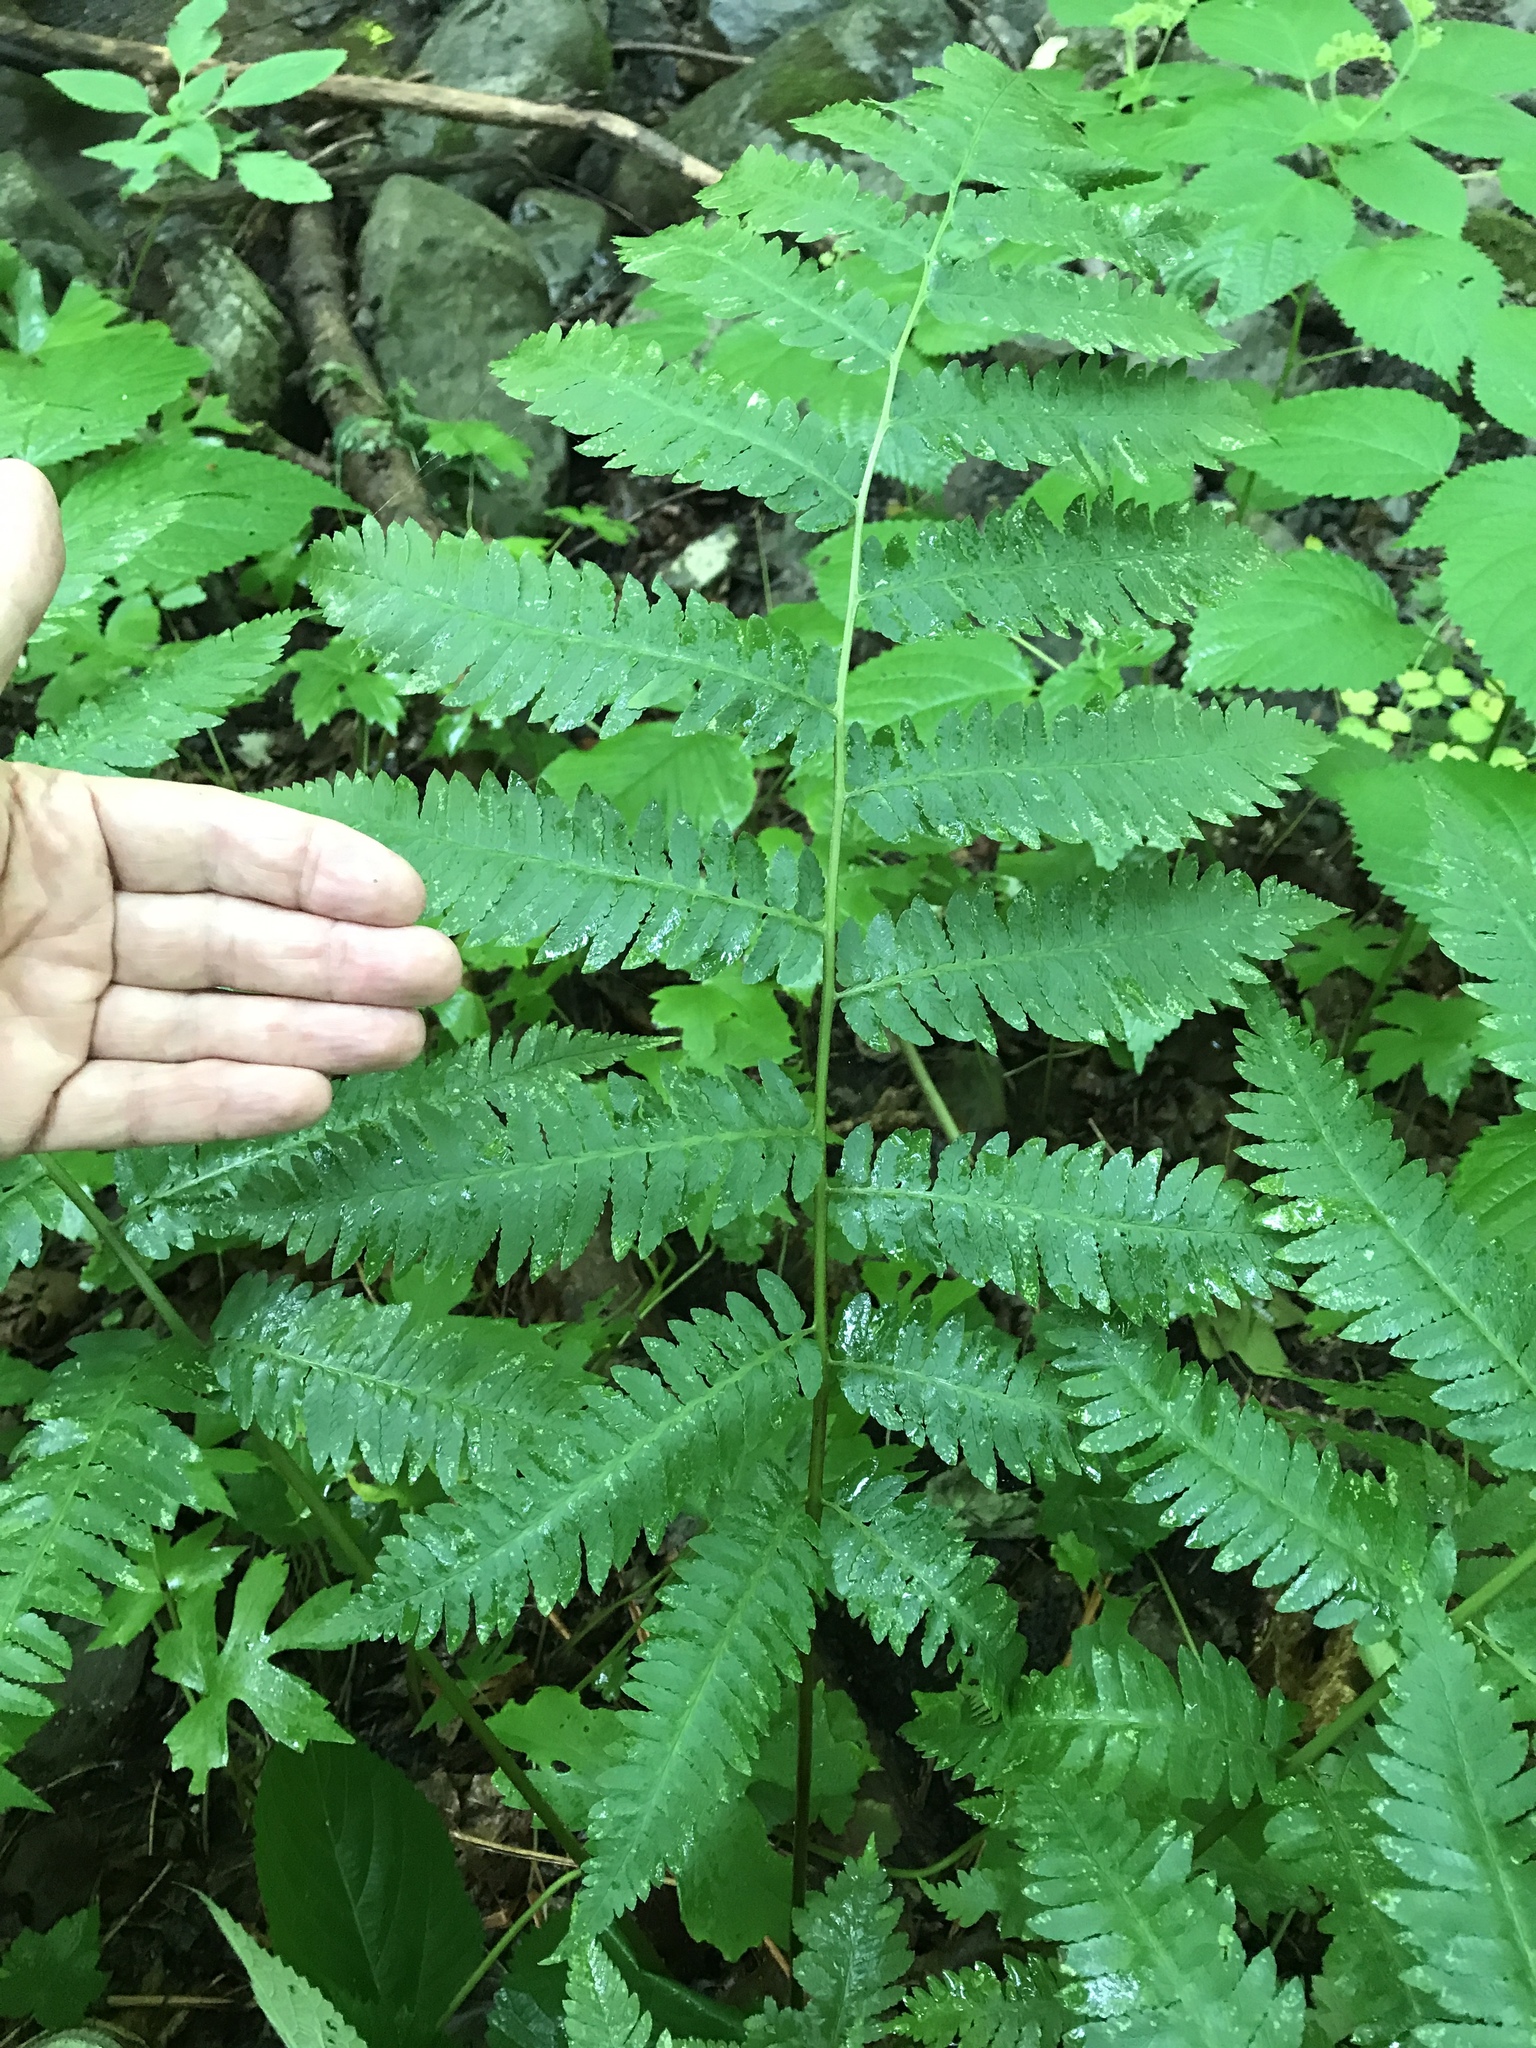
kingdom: Plantae
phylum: Tracheophyta
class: Polypodiopsida
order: Polypodiales
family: Dryopteridaceae
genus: Dryopteris
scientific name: Dryopteris goldieana
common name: Goldie's fern
